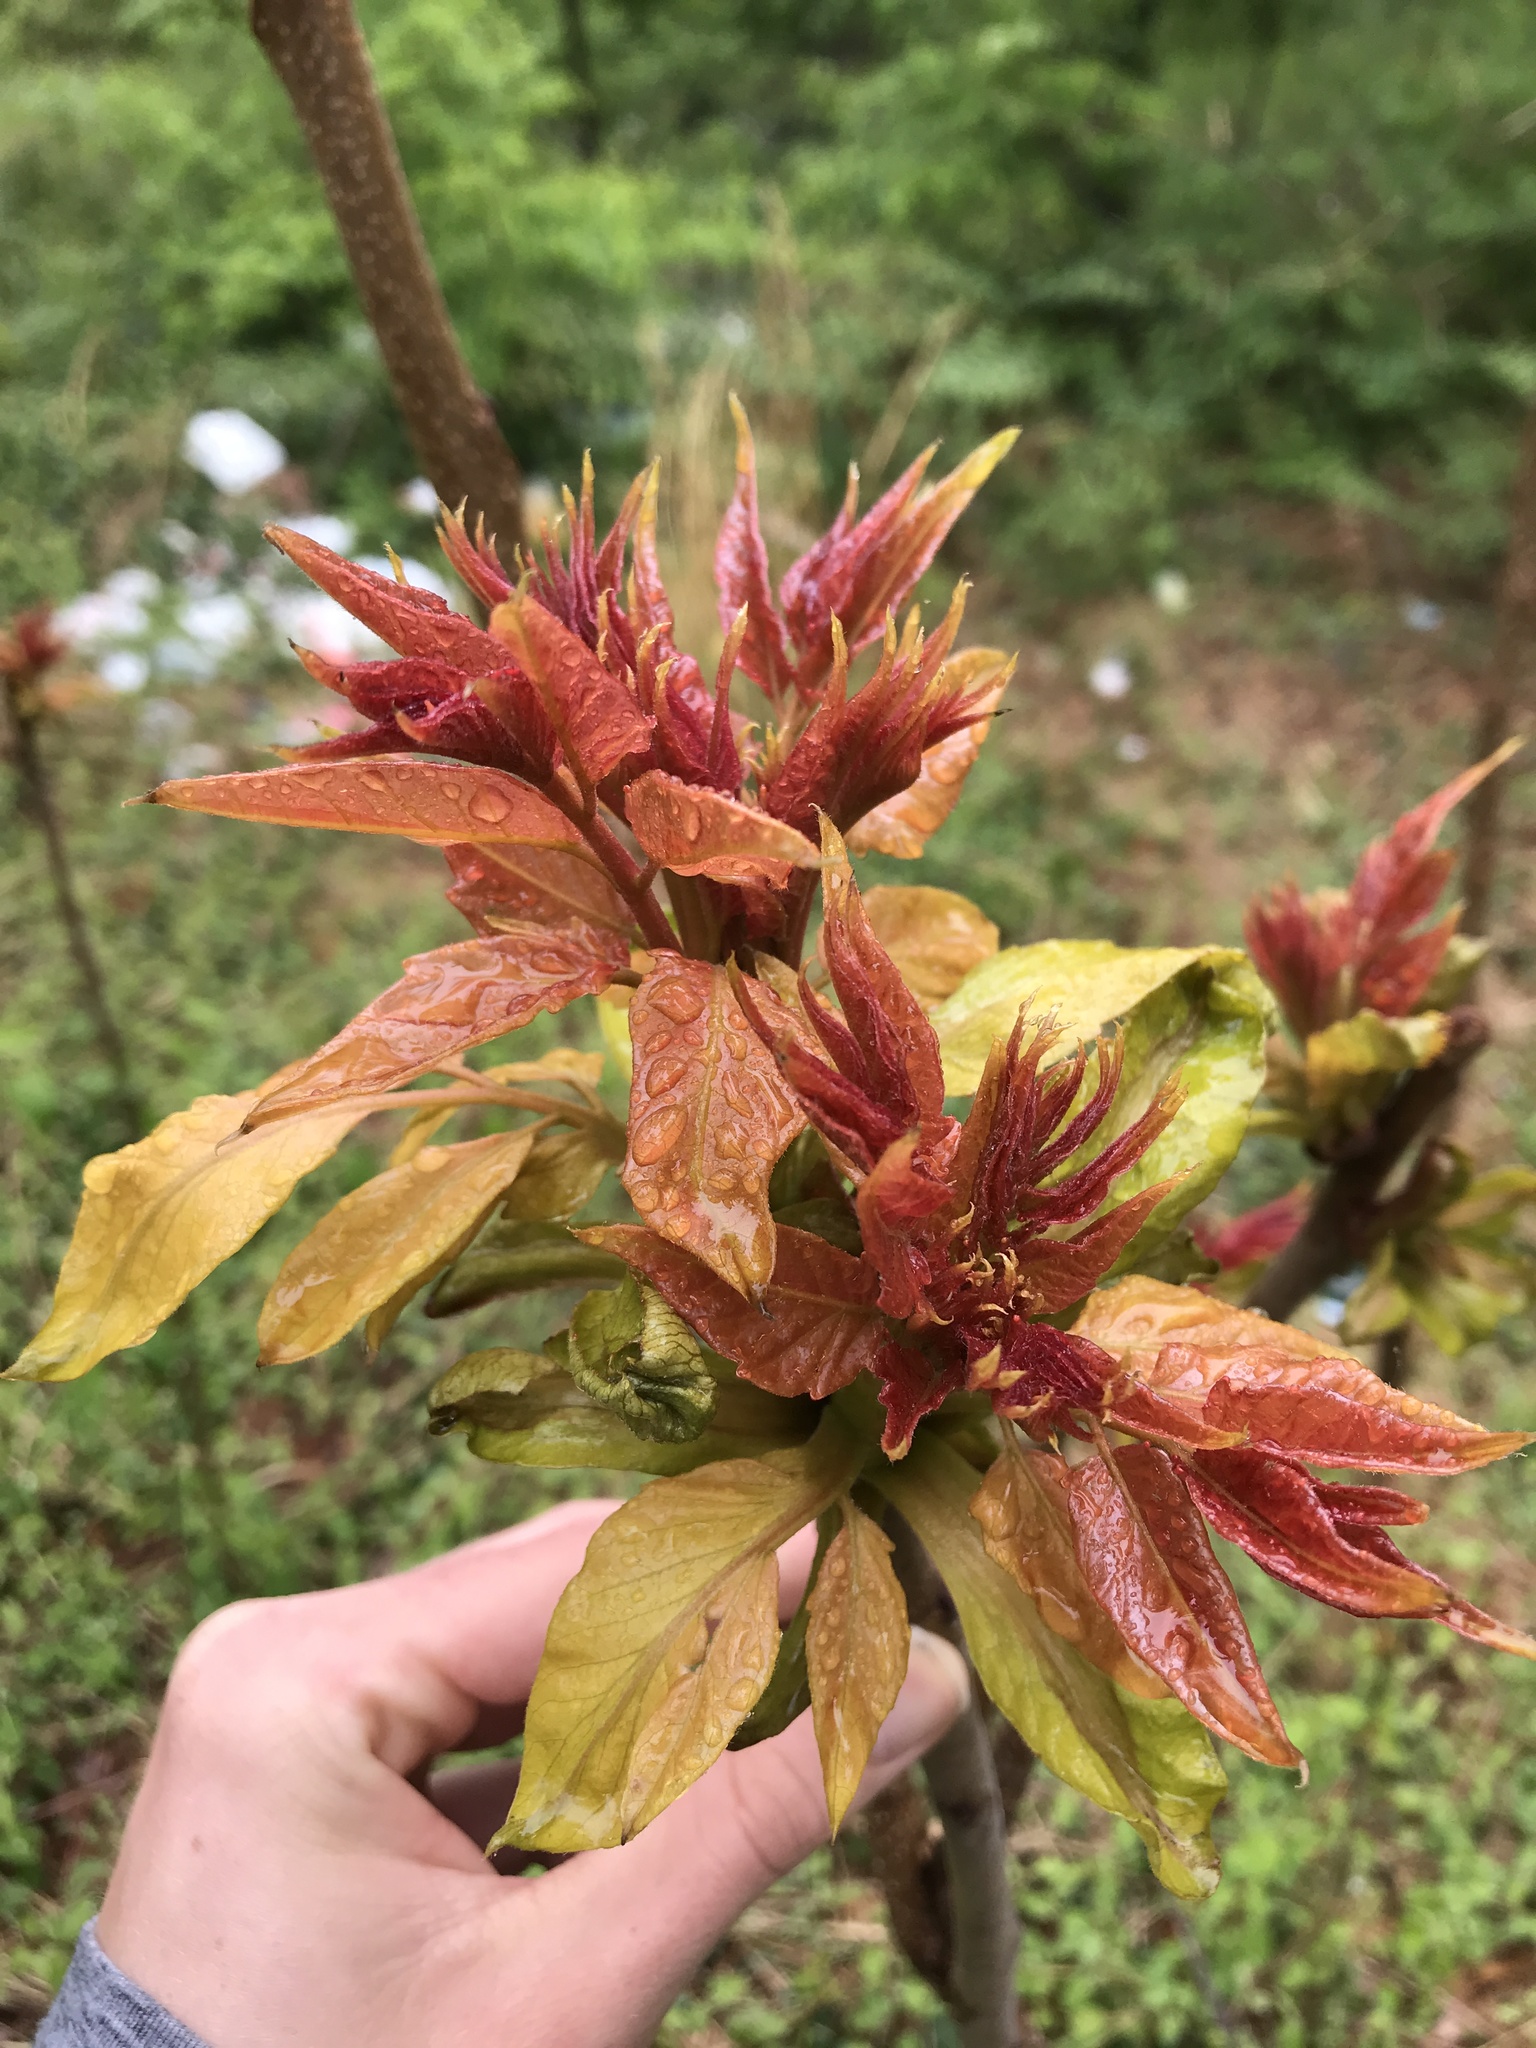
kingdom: Plantae
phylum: Tracheophyta
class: Magnoliopsida
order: Sapindales
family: Simaroubaceae
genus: Ailanthus
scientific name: Ailanthus altissima
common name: Tree-of-heaven
